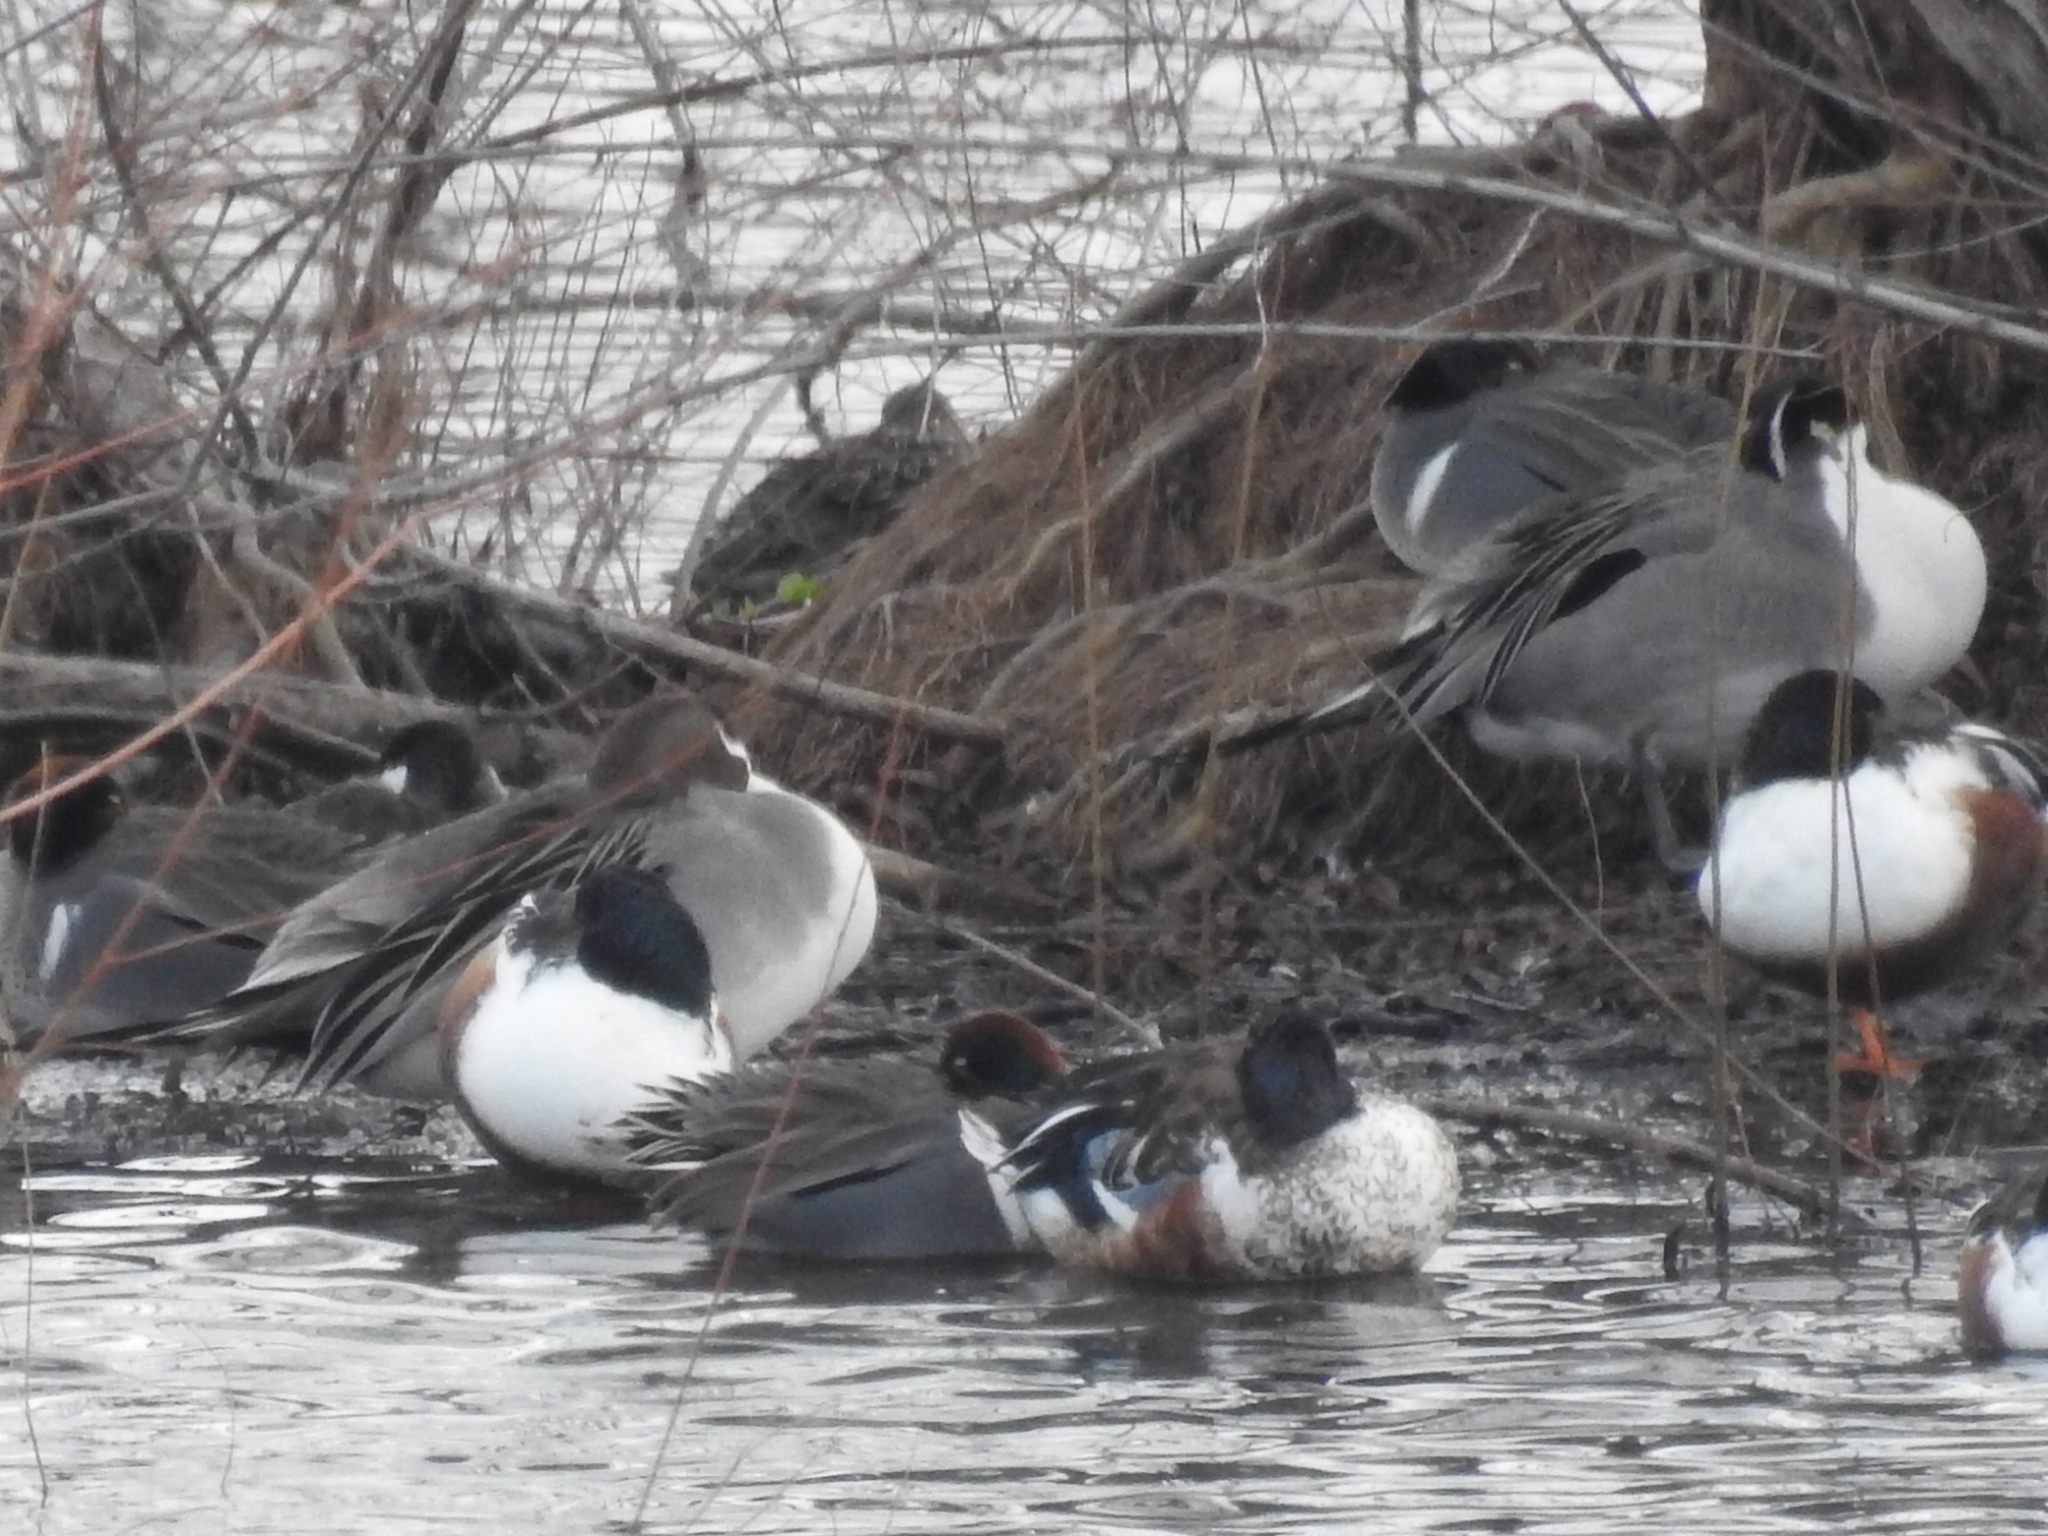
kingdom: Animalia
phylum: Chordata
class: Aves
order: Anseriformes
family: Anatidae
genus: Anas
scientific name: Anas acuta
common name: Northern pintail
